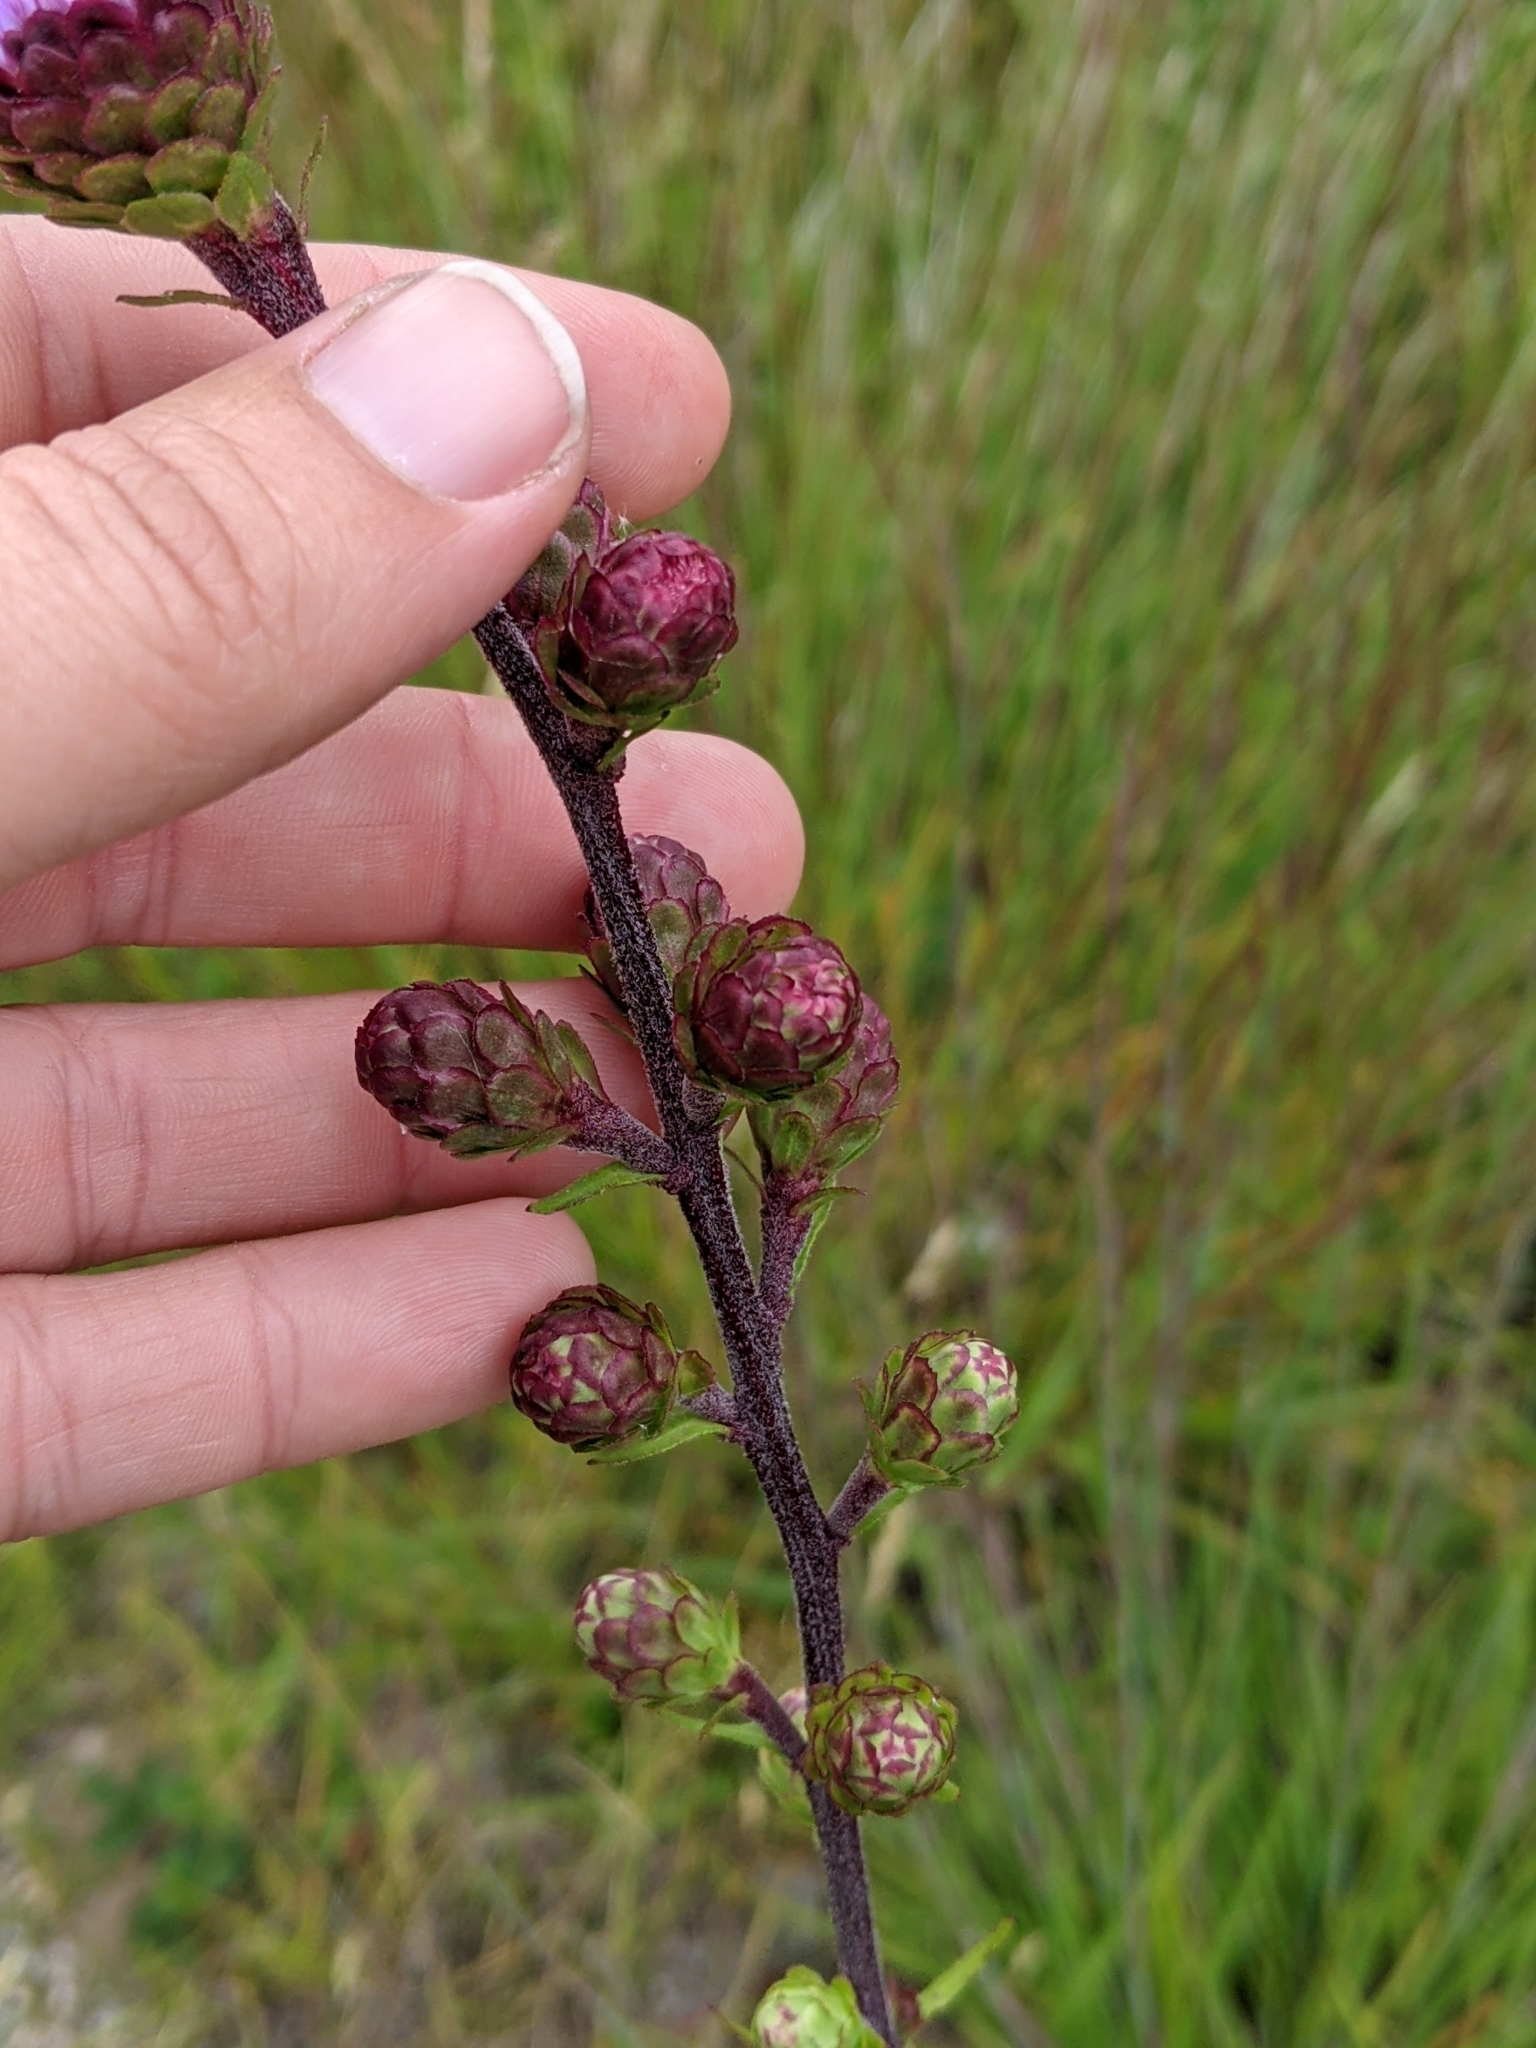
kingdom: Plantae
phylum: Tracheophyta
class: Magnoliopsida
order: Asterales
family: Asteraceae
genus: Liatris
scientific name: Liatris scariosa
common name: Northern gayfeather
